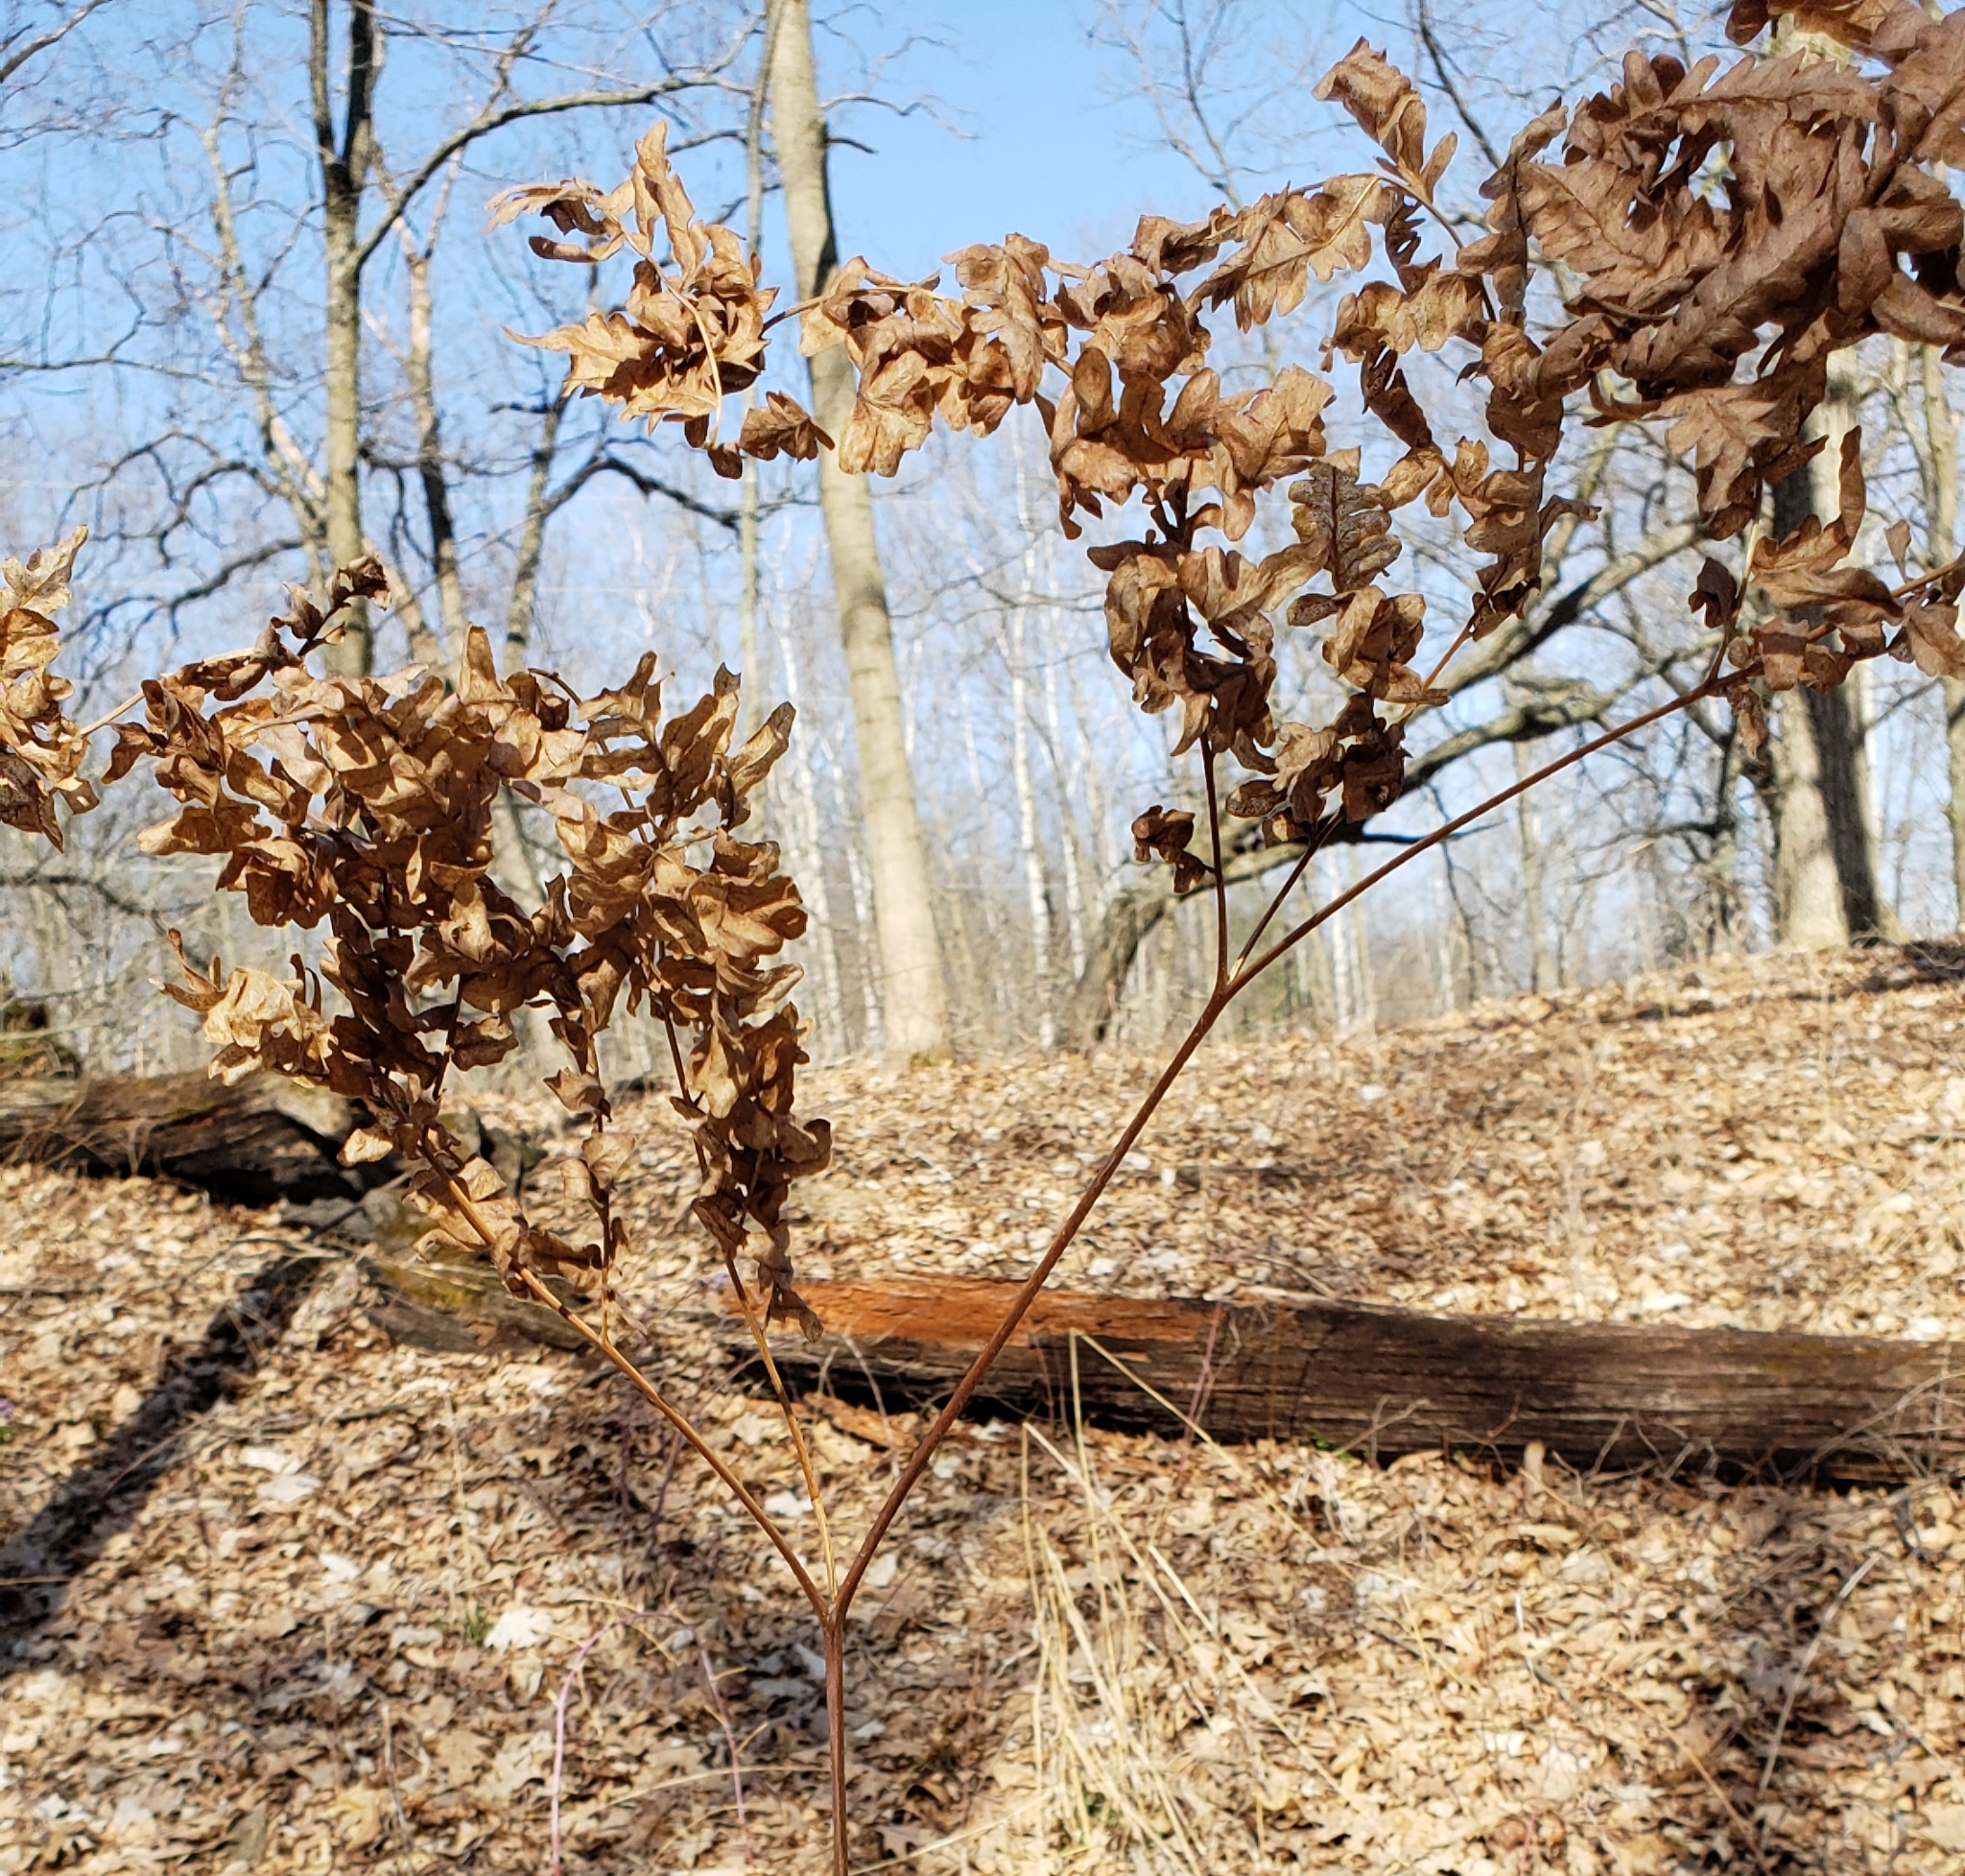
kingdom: Plantae
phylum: Tracheophyta
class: Polypodiopsida
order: Polypodiales
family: Dennstaedtiaceae
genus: Pteridium
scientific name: Pteridium aquilinum
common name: Bracken
